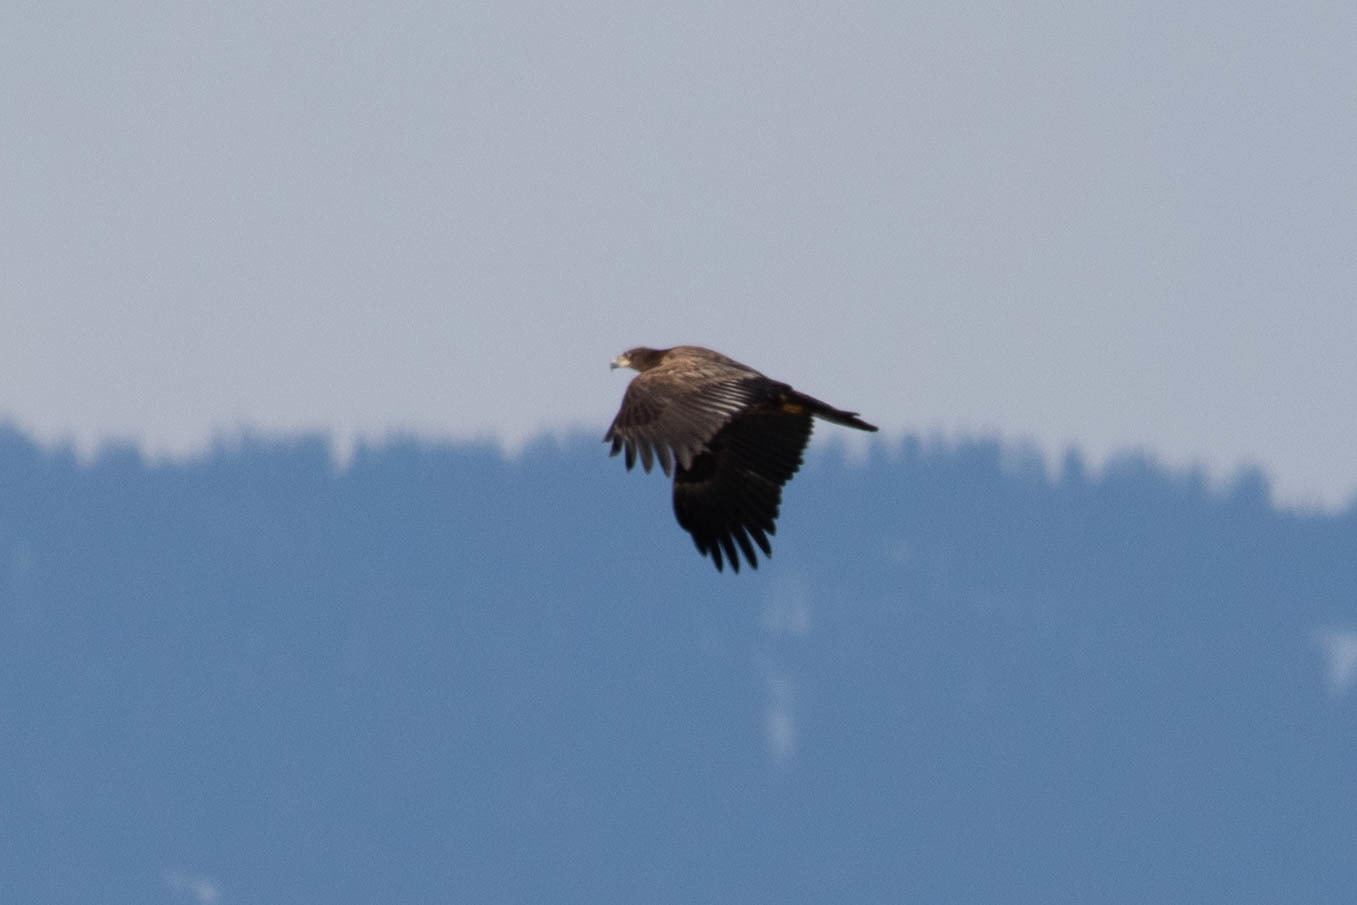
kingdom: Animalia
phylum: Chordata
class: Aves
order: Accipitriformes
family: Accipitridae
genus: Haliaeetus
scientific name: Haliaeetus leucocephalus
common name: Bald eagle
